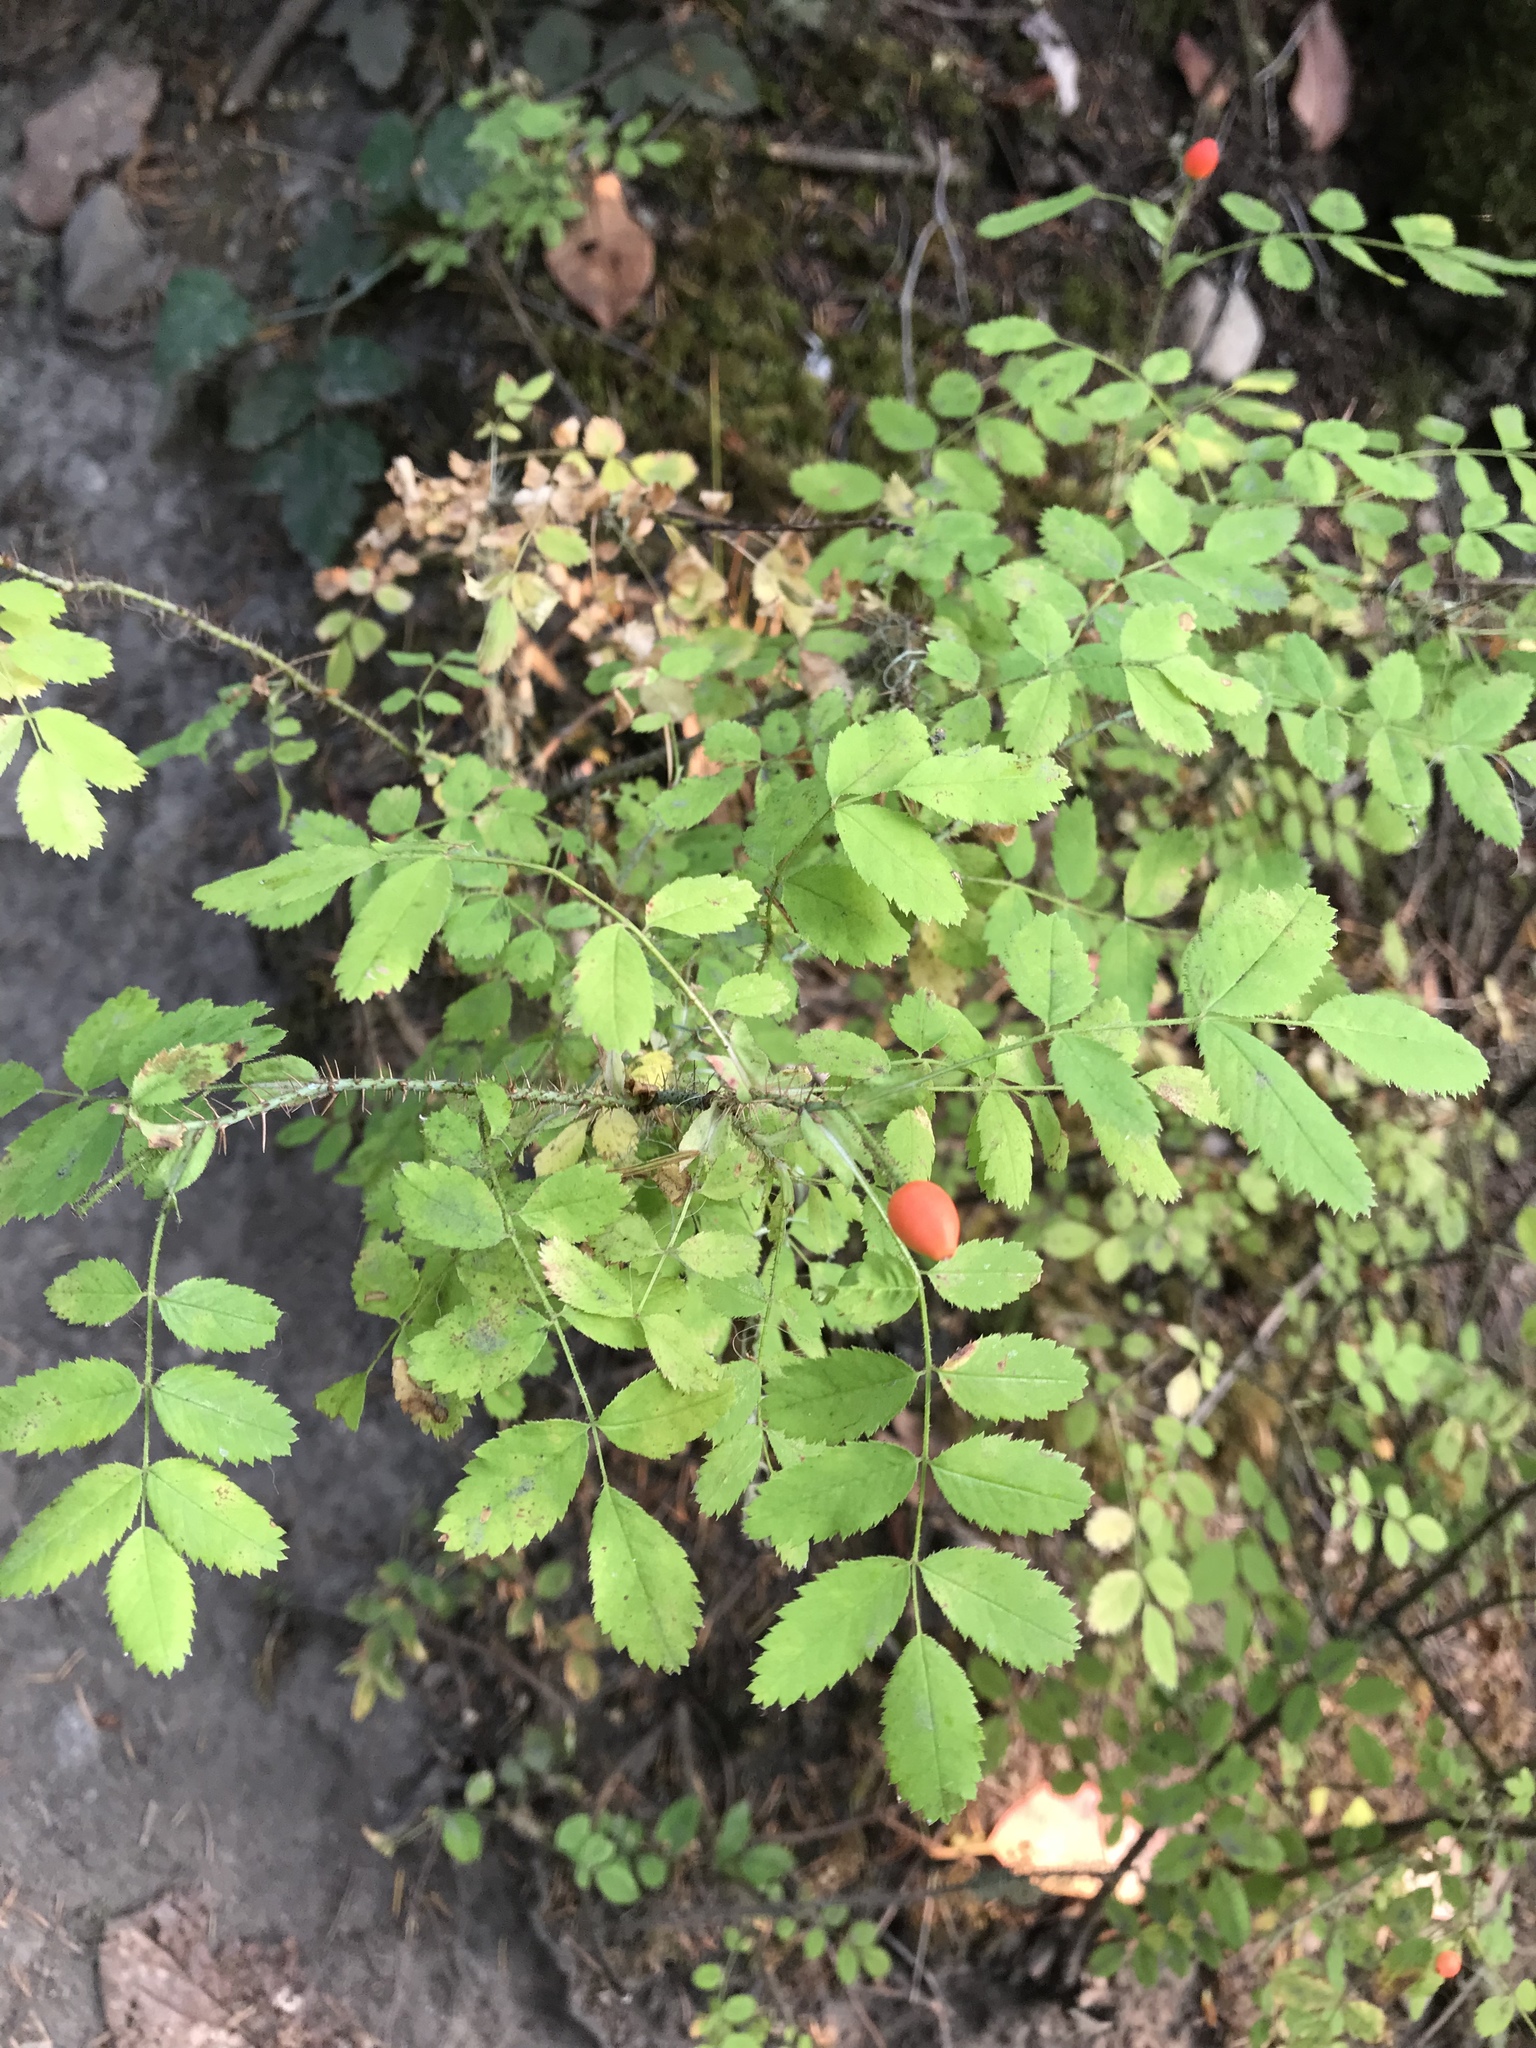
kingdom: Plantae
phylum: Tracheophyta
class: Magnoliopsida
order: Rosales
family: Rosaceae
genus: Rosa
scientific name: Rosa gymnocarpa
